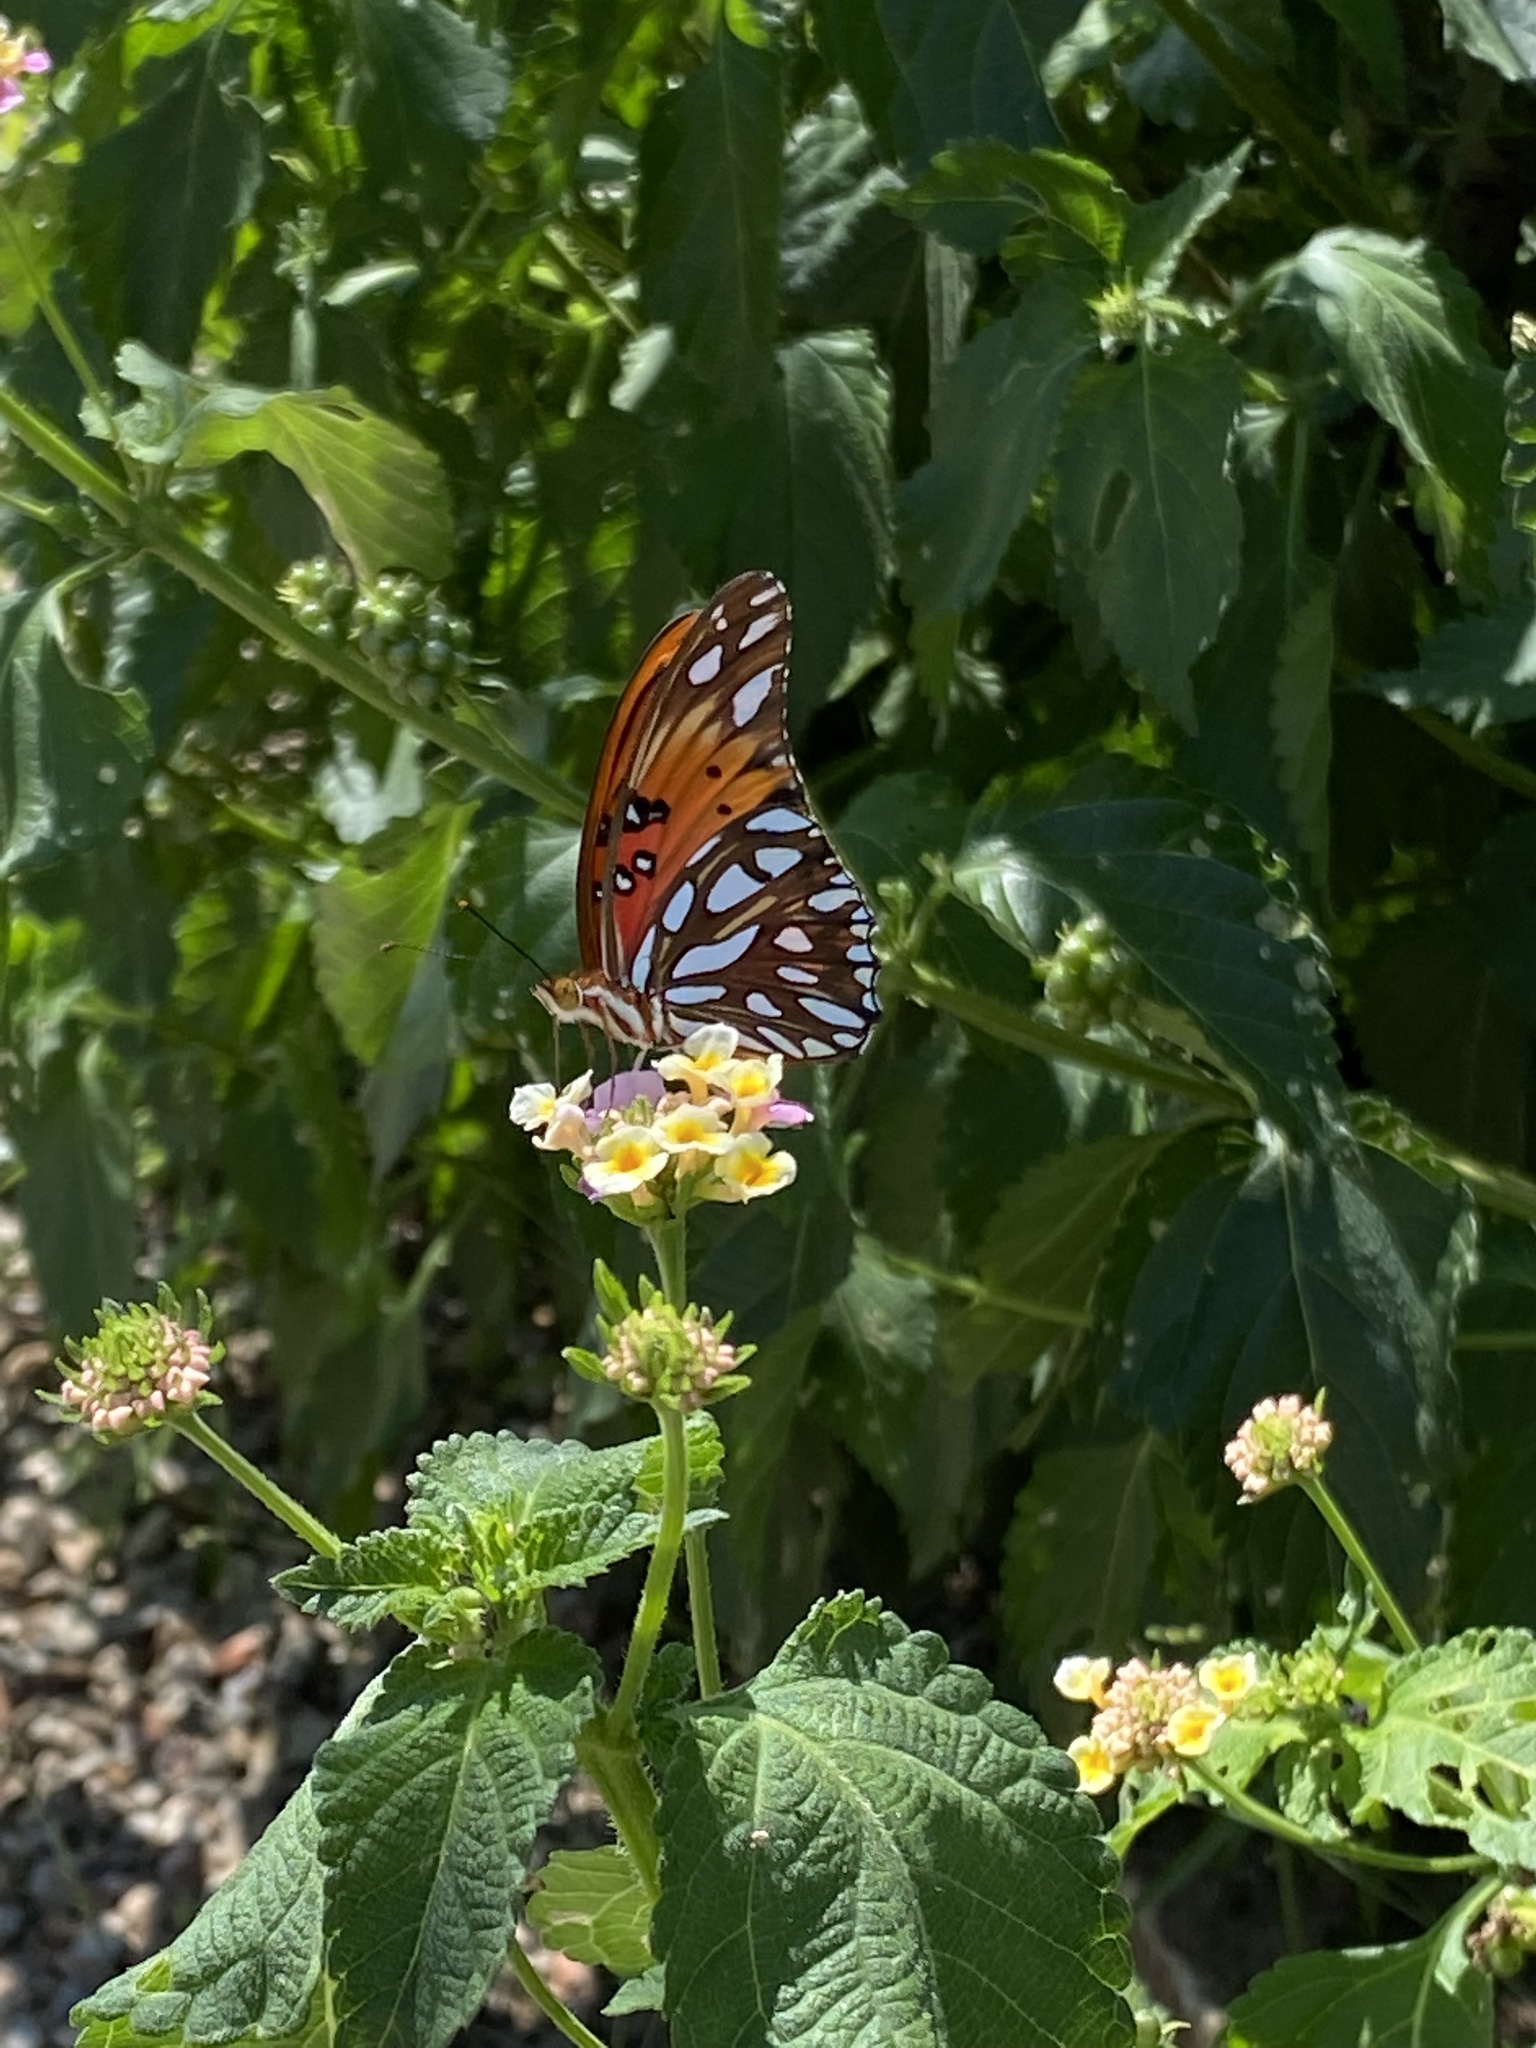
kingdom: Animalia
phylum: Arthropoda
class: Insecta
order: Lepidoptera
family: Nymphalidae
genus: Dione
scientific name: Dione vanillae
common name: Gulf fritillary
